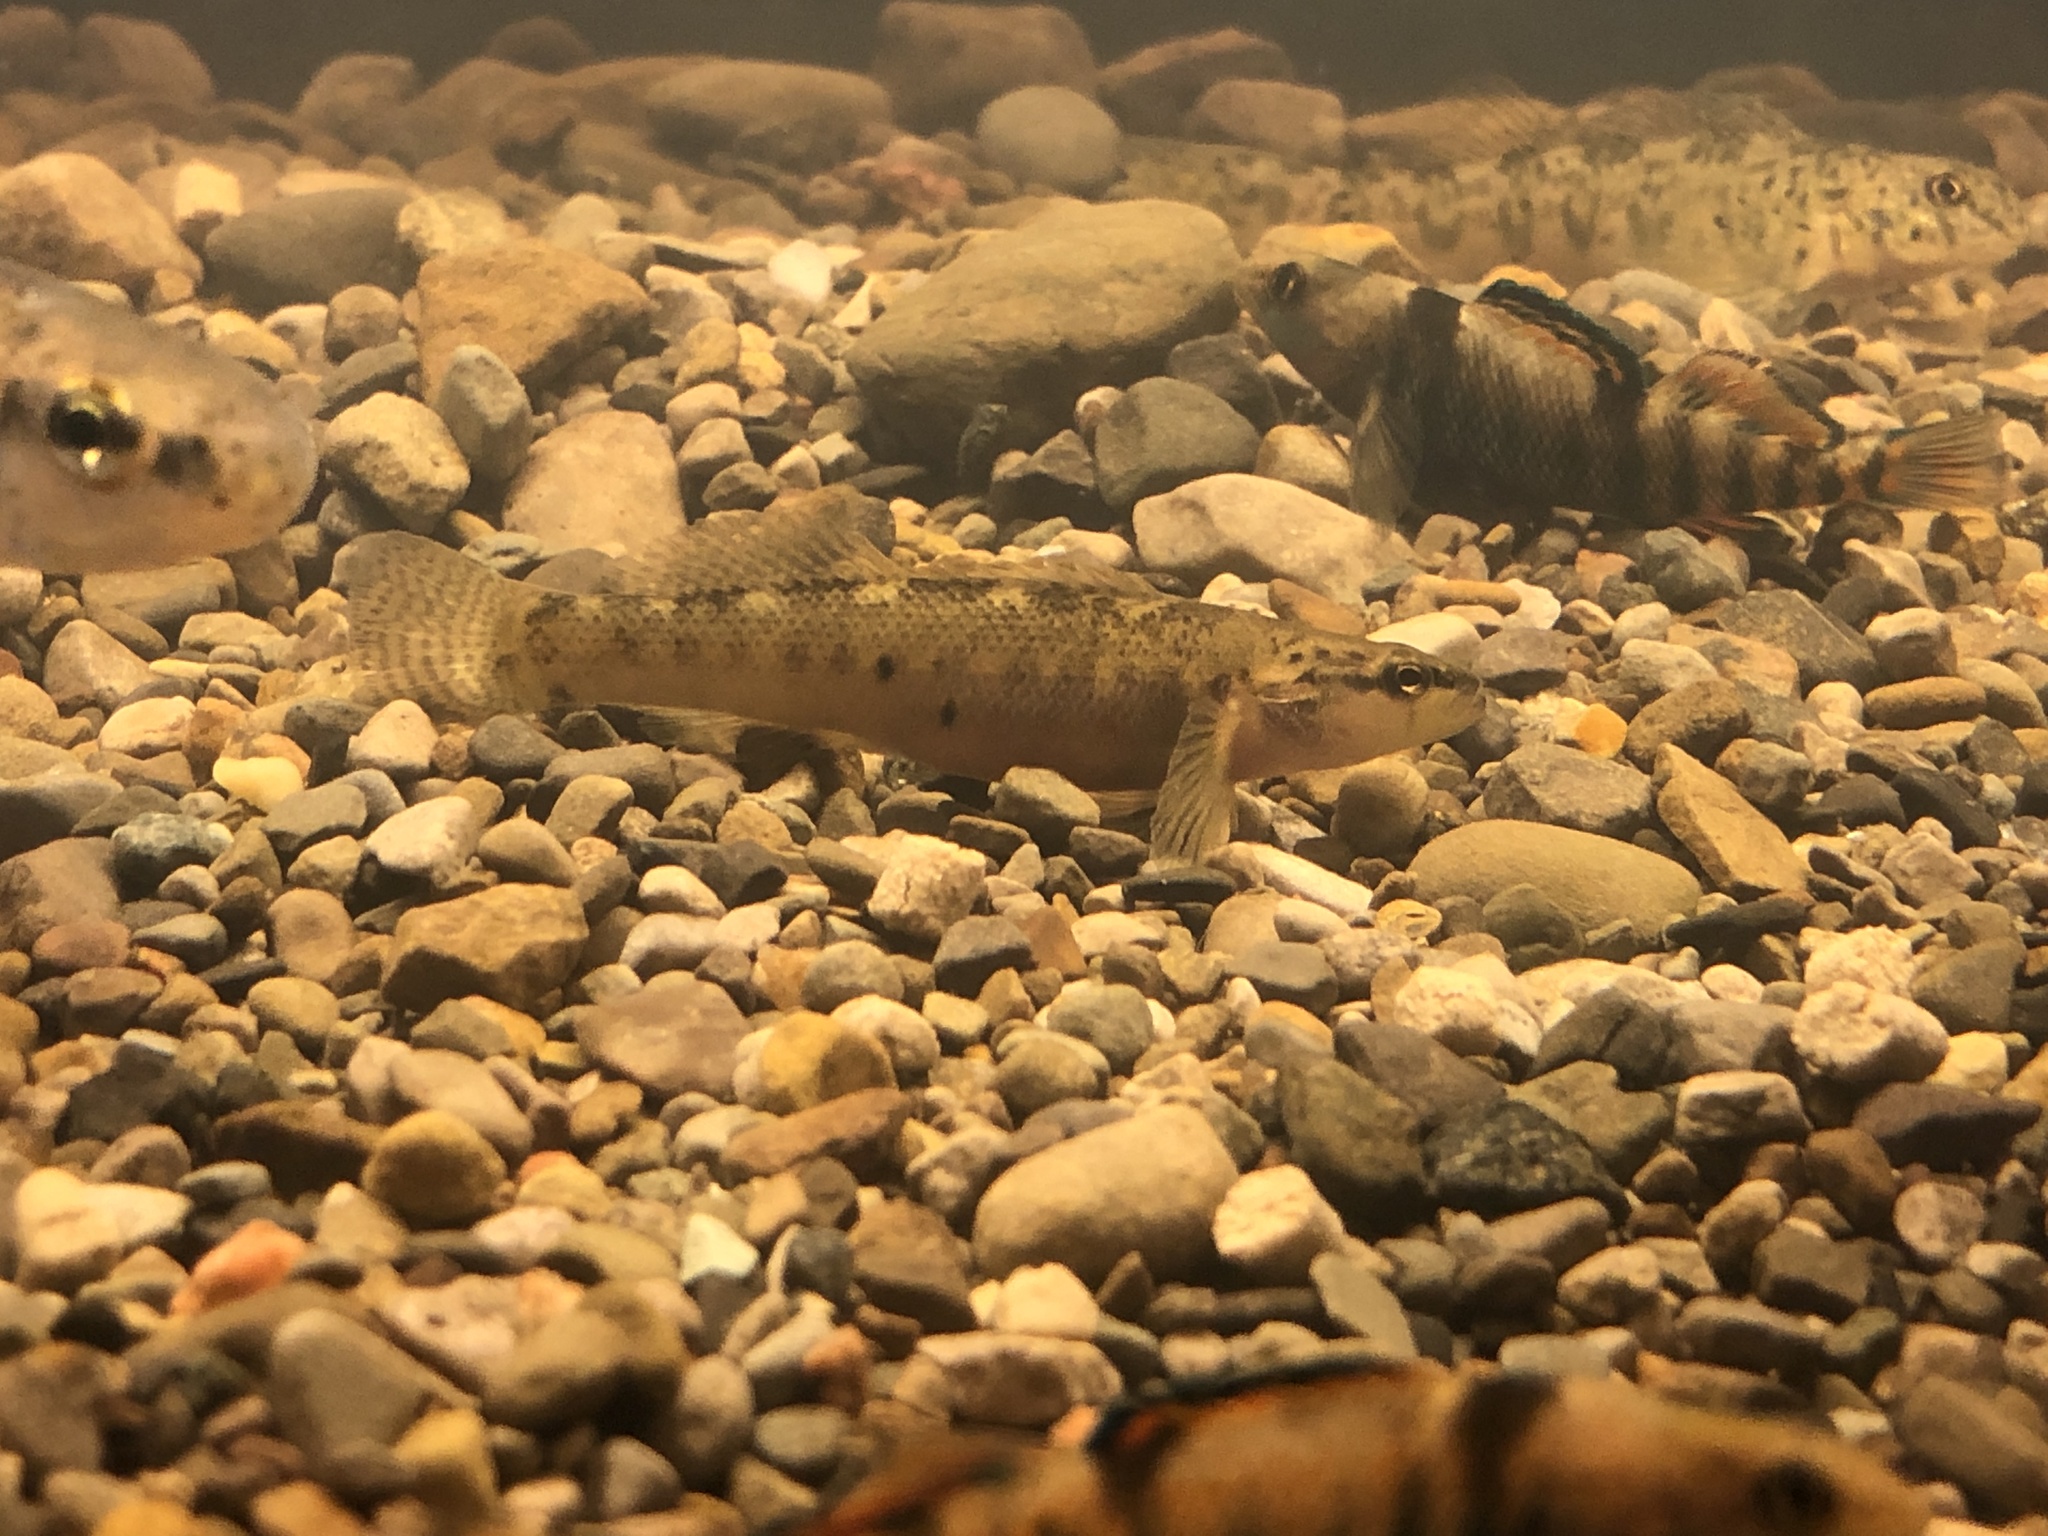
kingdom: Animalia
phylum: Chordata
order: Perciformes
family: Percidae
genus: Etheostoma
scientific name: Etheostoma flabellare
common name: Fantail darter
